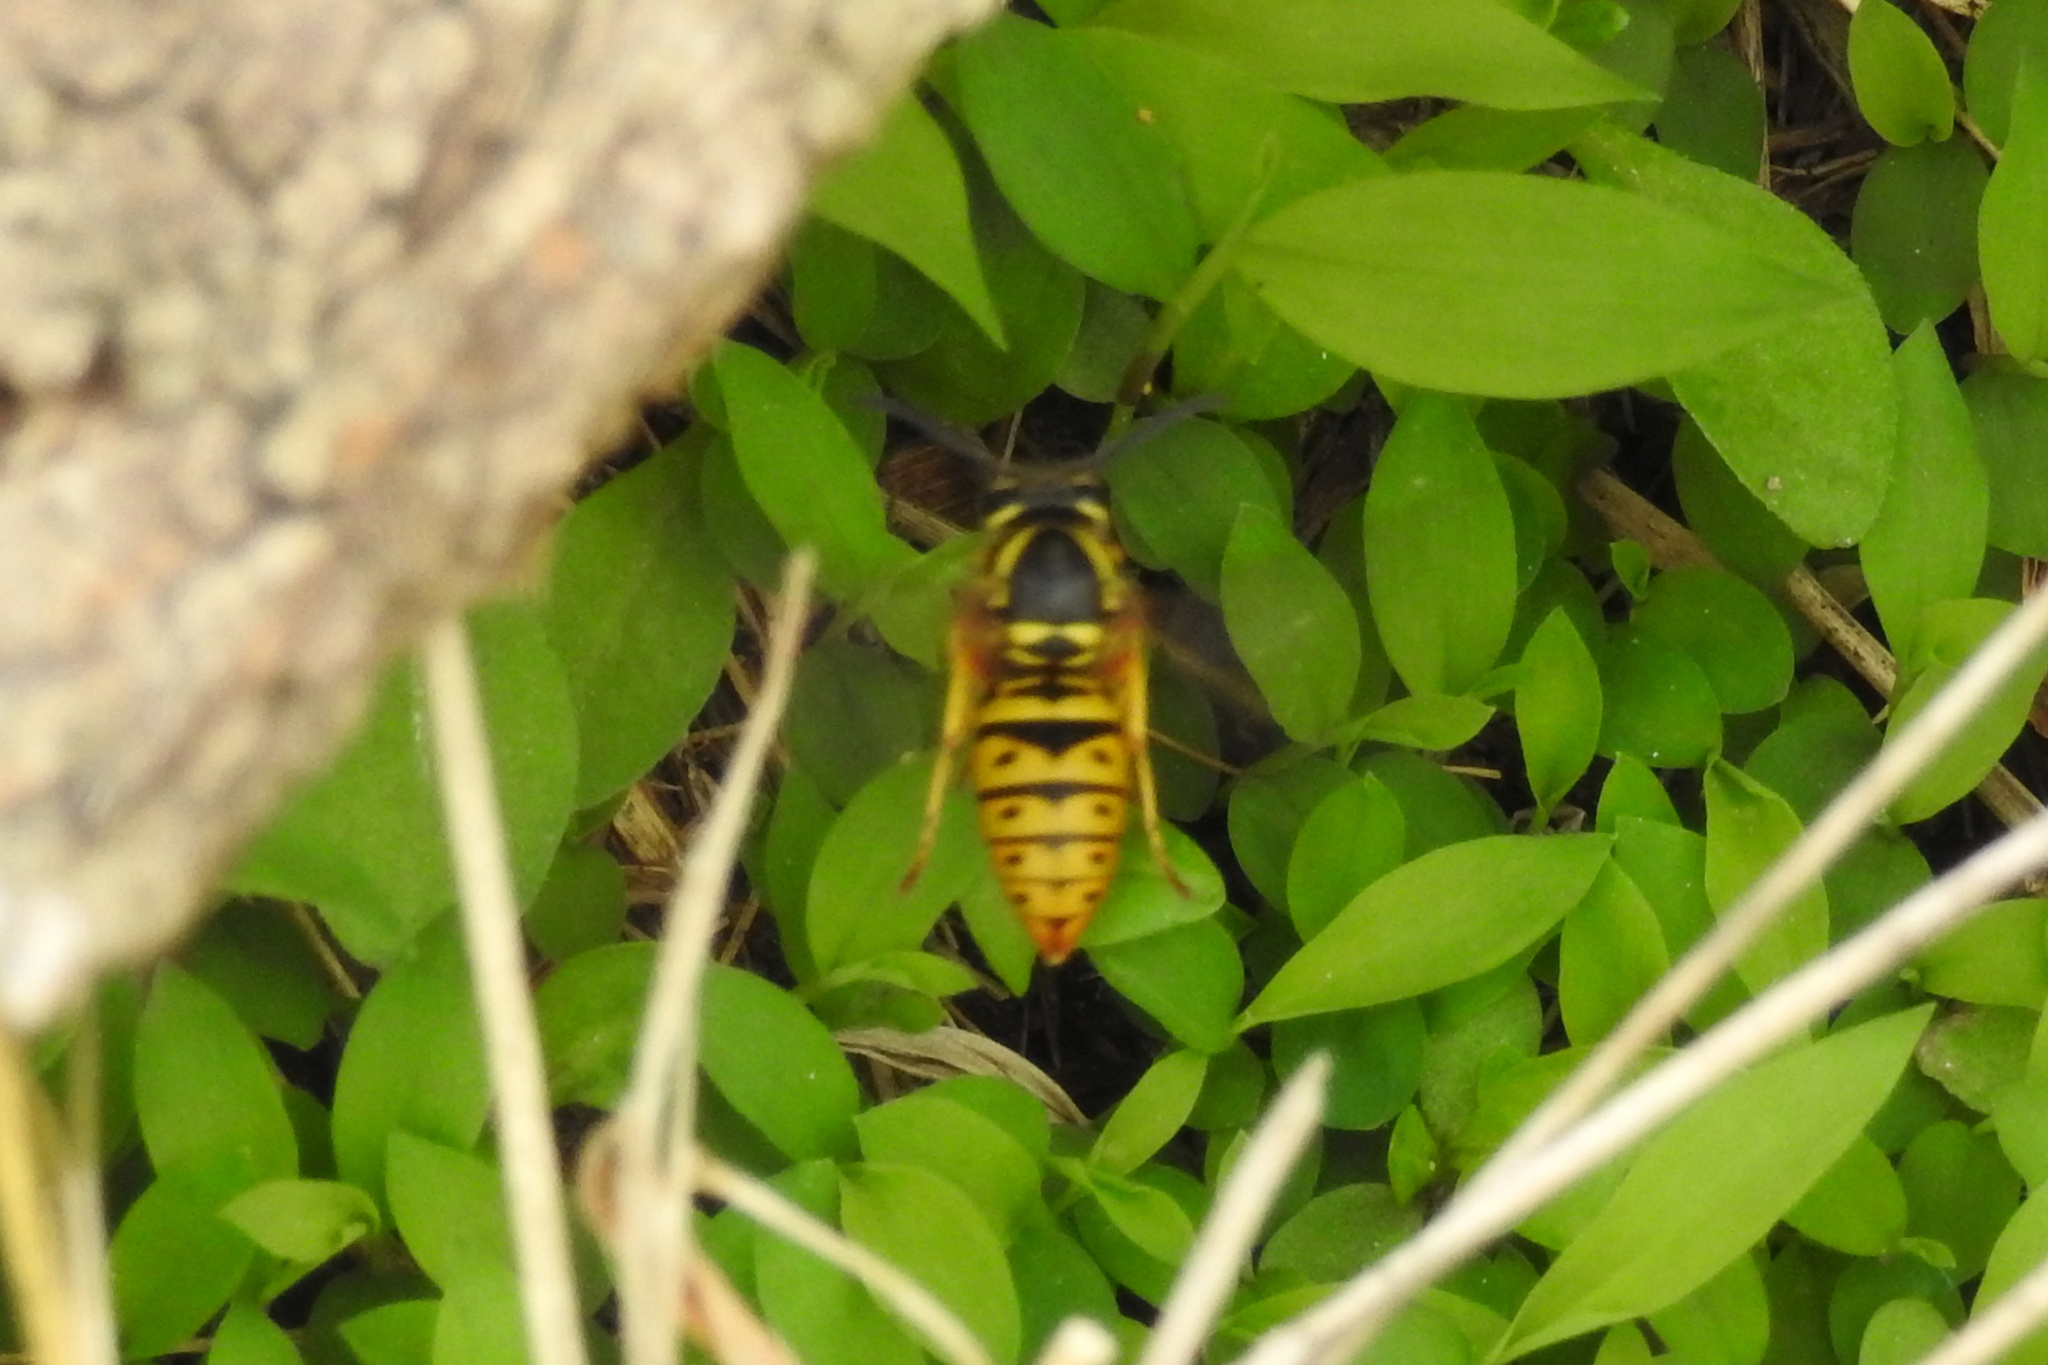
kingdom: Animalia
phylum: Arthropoda
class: Insecta
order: Hymenoptera
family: Vespidae
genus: Vespula
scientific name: Vespula maculifrons
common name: Eastern yellowjacket
